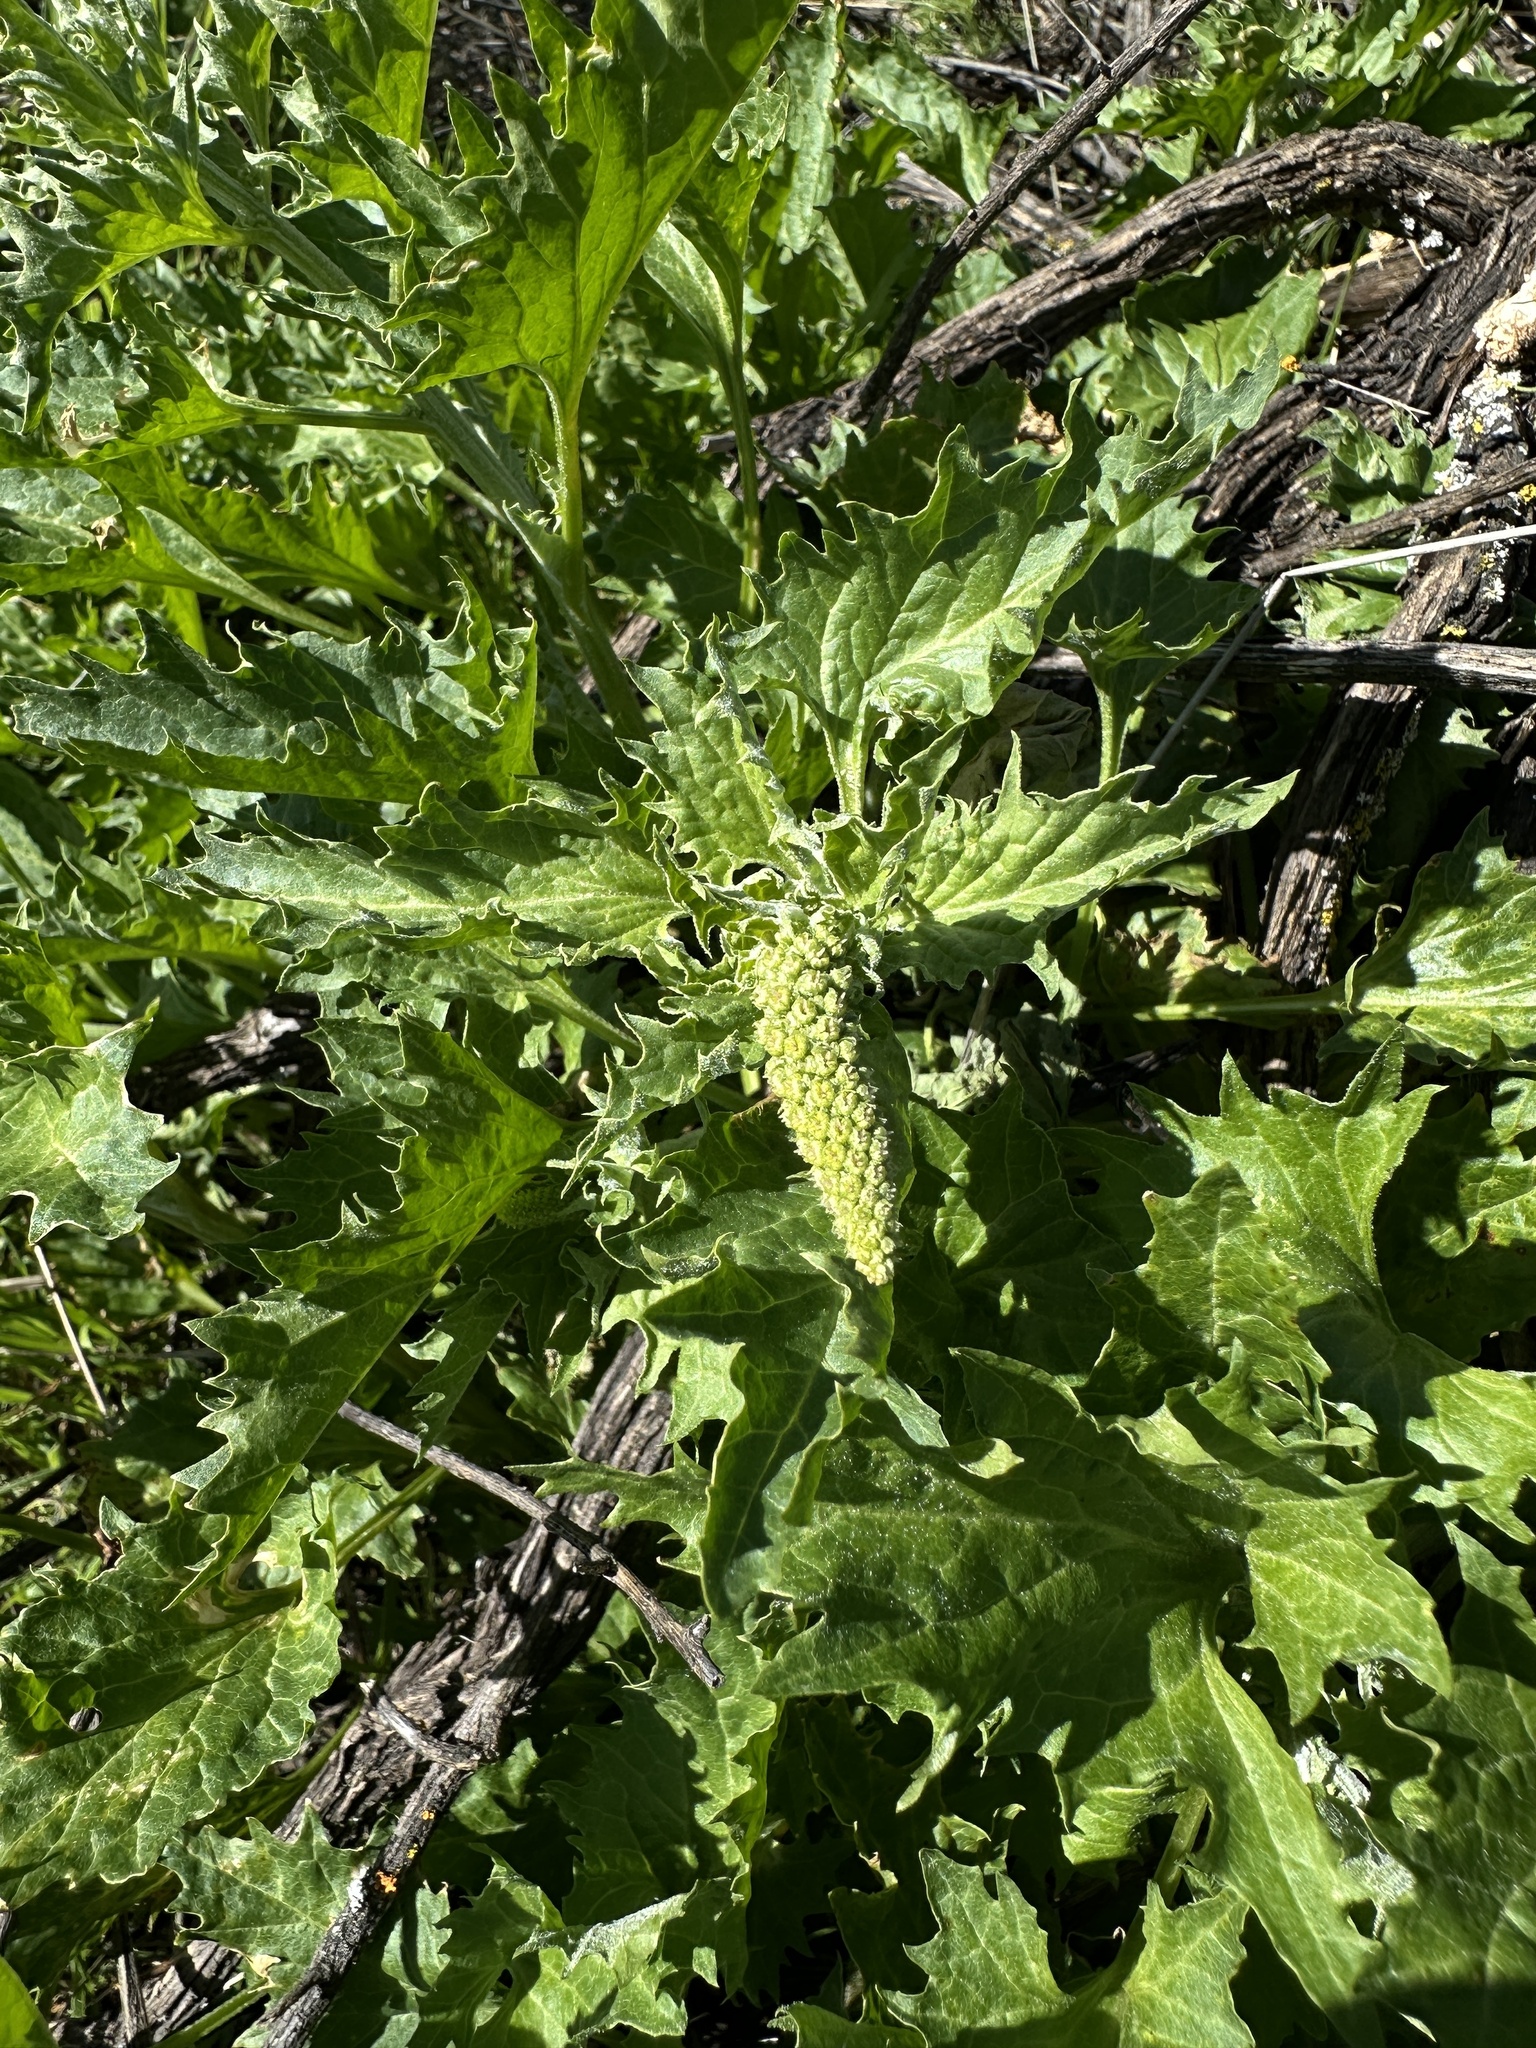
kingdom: Plantae
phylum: Tracheophyta
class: Magnoliopsida
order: Caryophyllales
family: Amaranthaceae
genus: Blitum
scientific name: Blitum californicum
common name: California goosefoot
